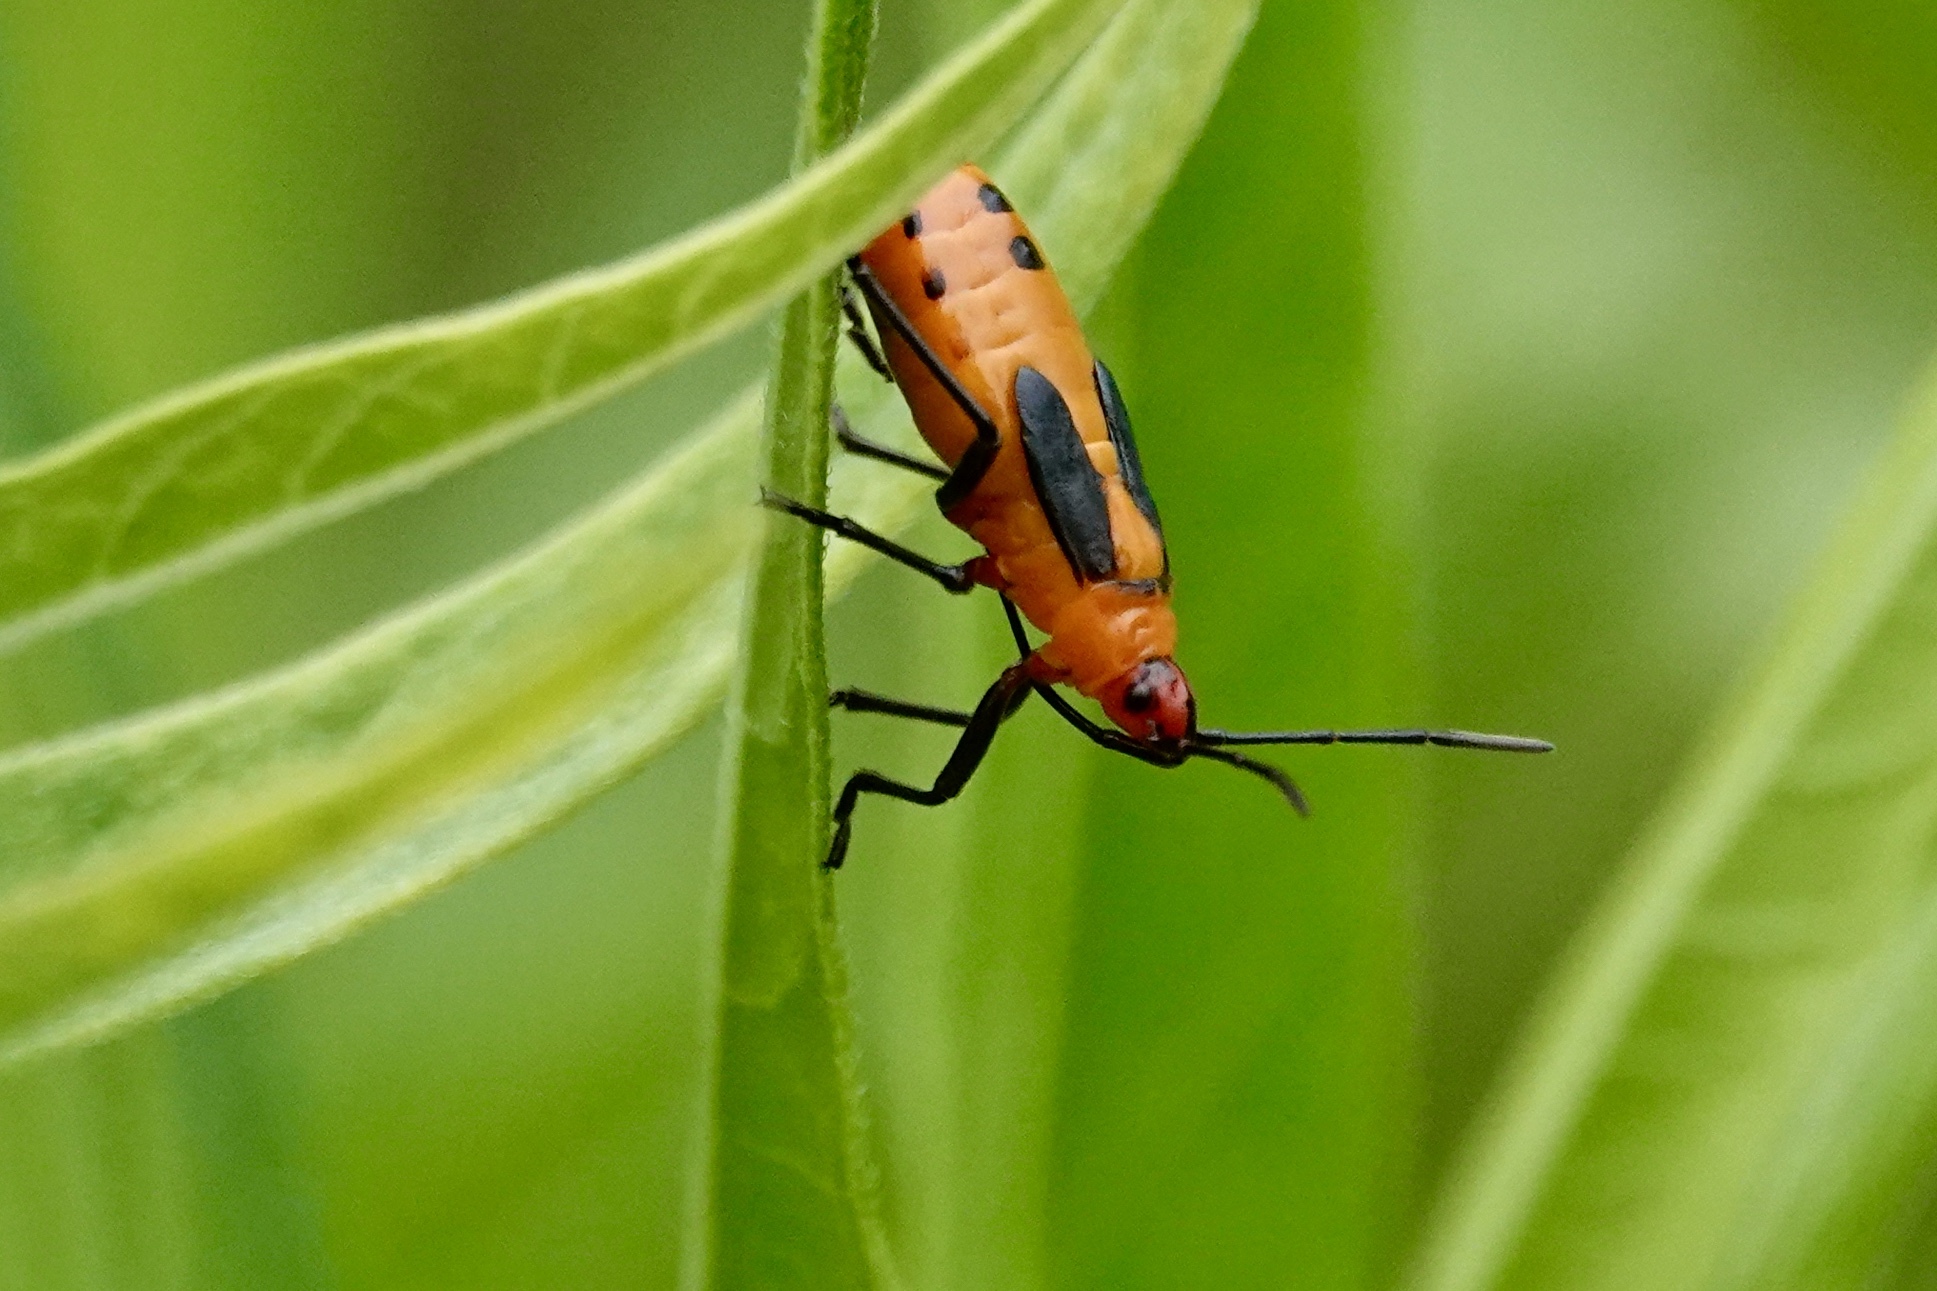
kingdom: Animalia
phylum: Arthropoda
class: Insecta
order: Hemiptera
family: Lygaeidae
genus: Oncopeltus
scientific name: Oncopeltus fasciatus
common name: Large milkweed bug
